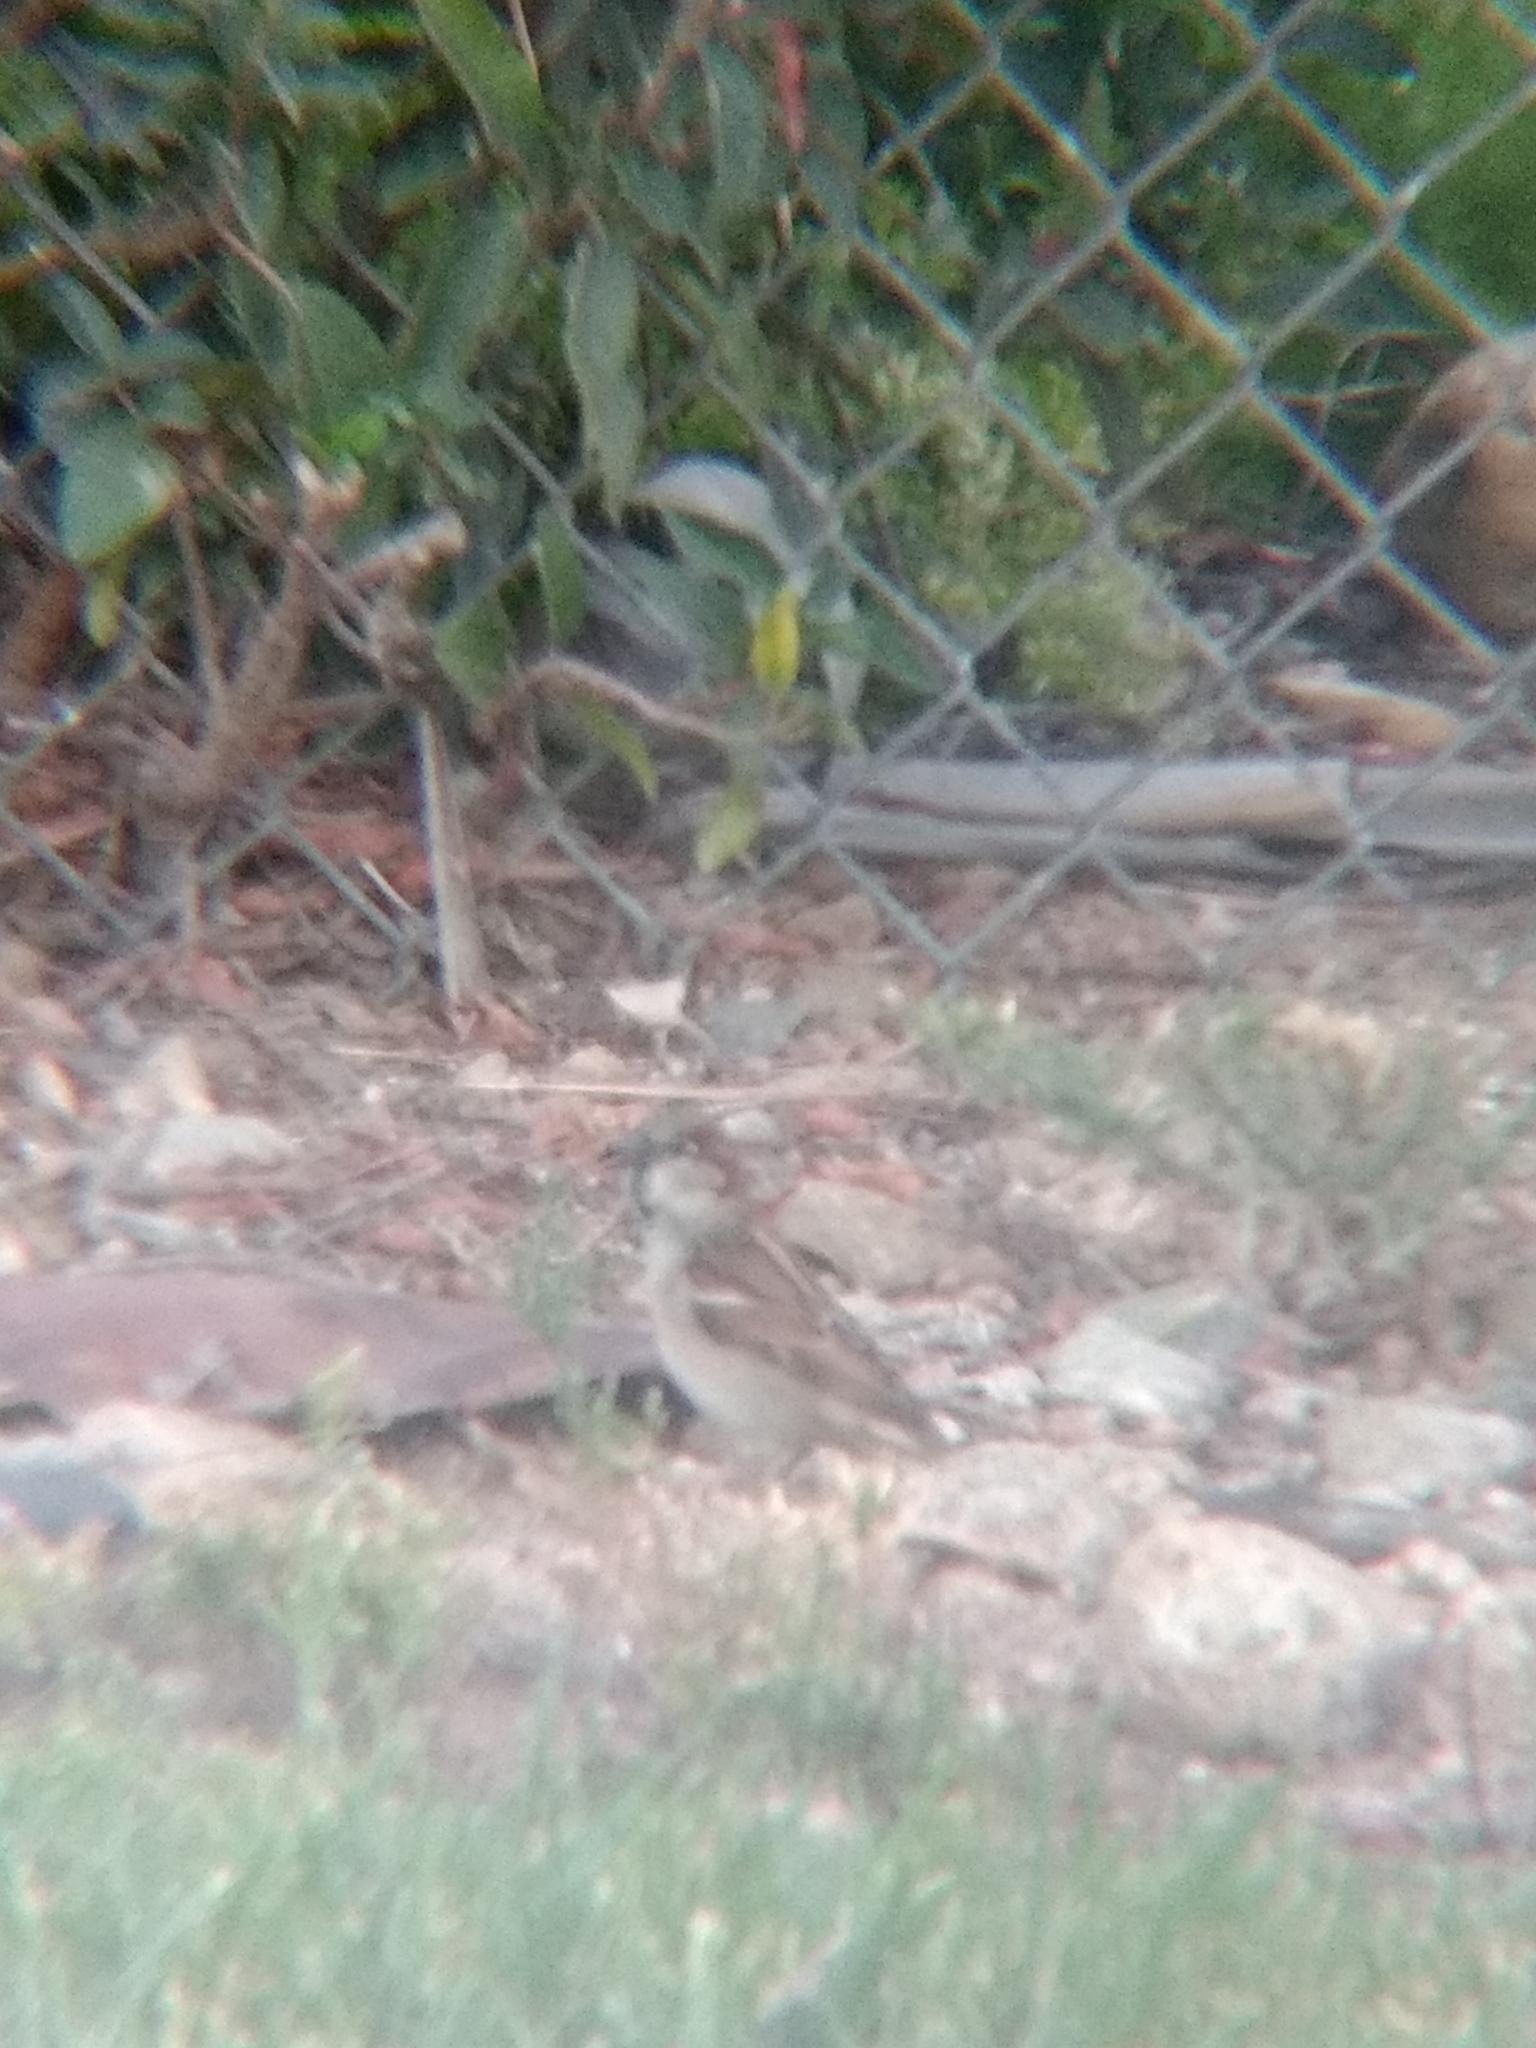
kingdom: Animalia
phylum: Chordata
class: Aves
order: Passeriformes
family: Passeridae
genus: Passer
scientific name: Passer domesticus
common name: House sparrow
